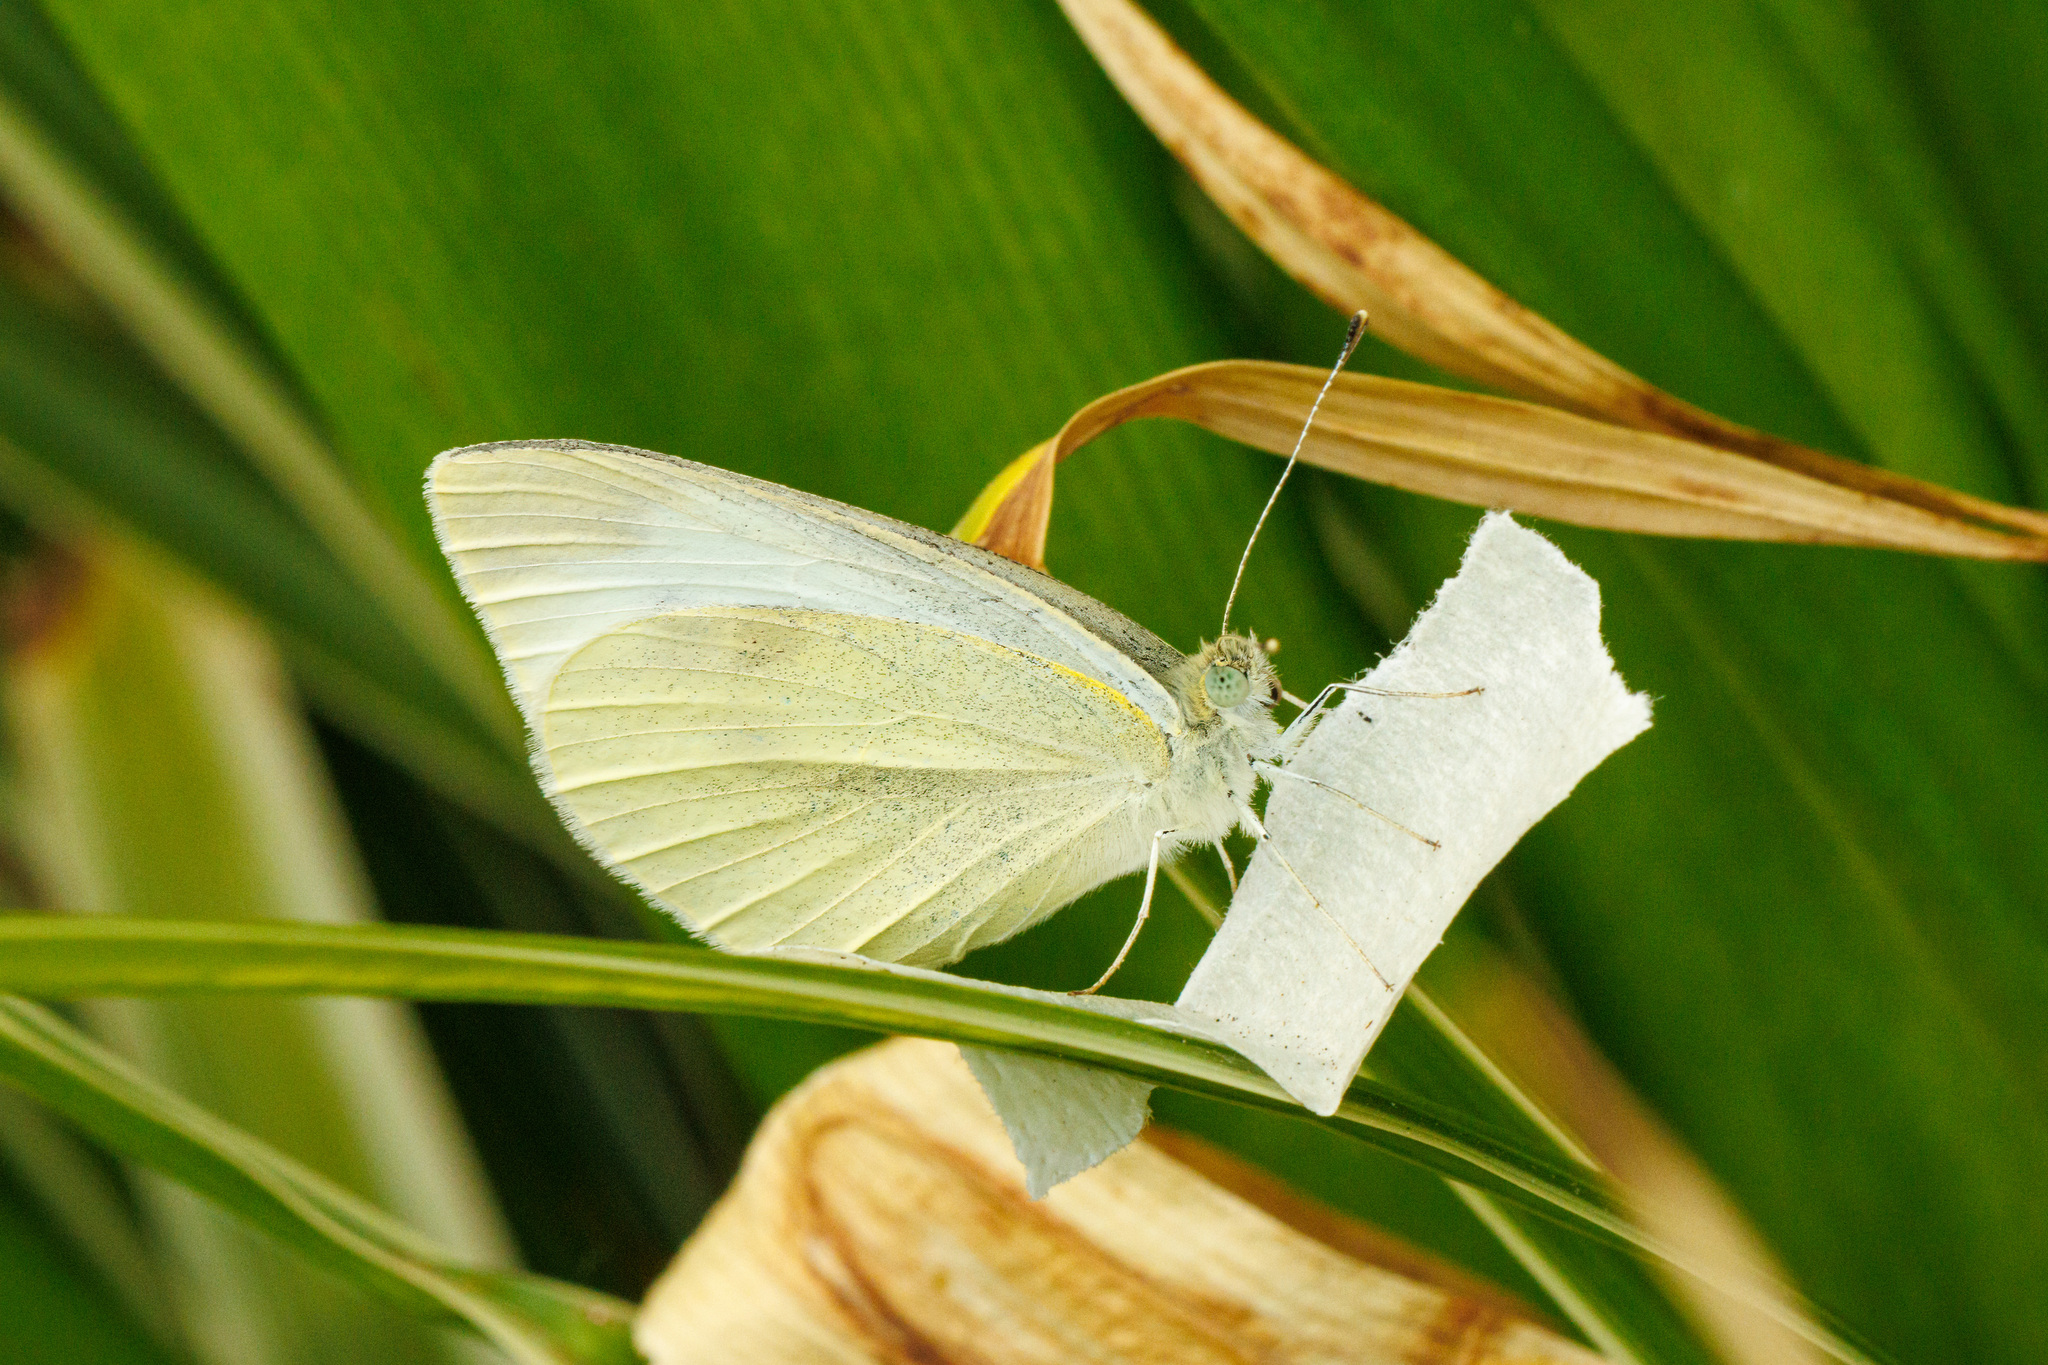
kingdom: Animalia
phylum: Arthropoda
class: Insecta
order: Lepidoptera
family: Pieridae
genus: Pieris
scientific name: Pieris rapae
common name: Small white
